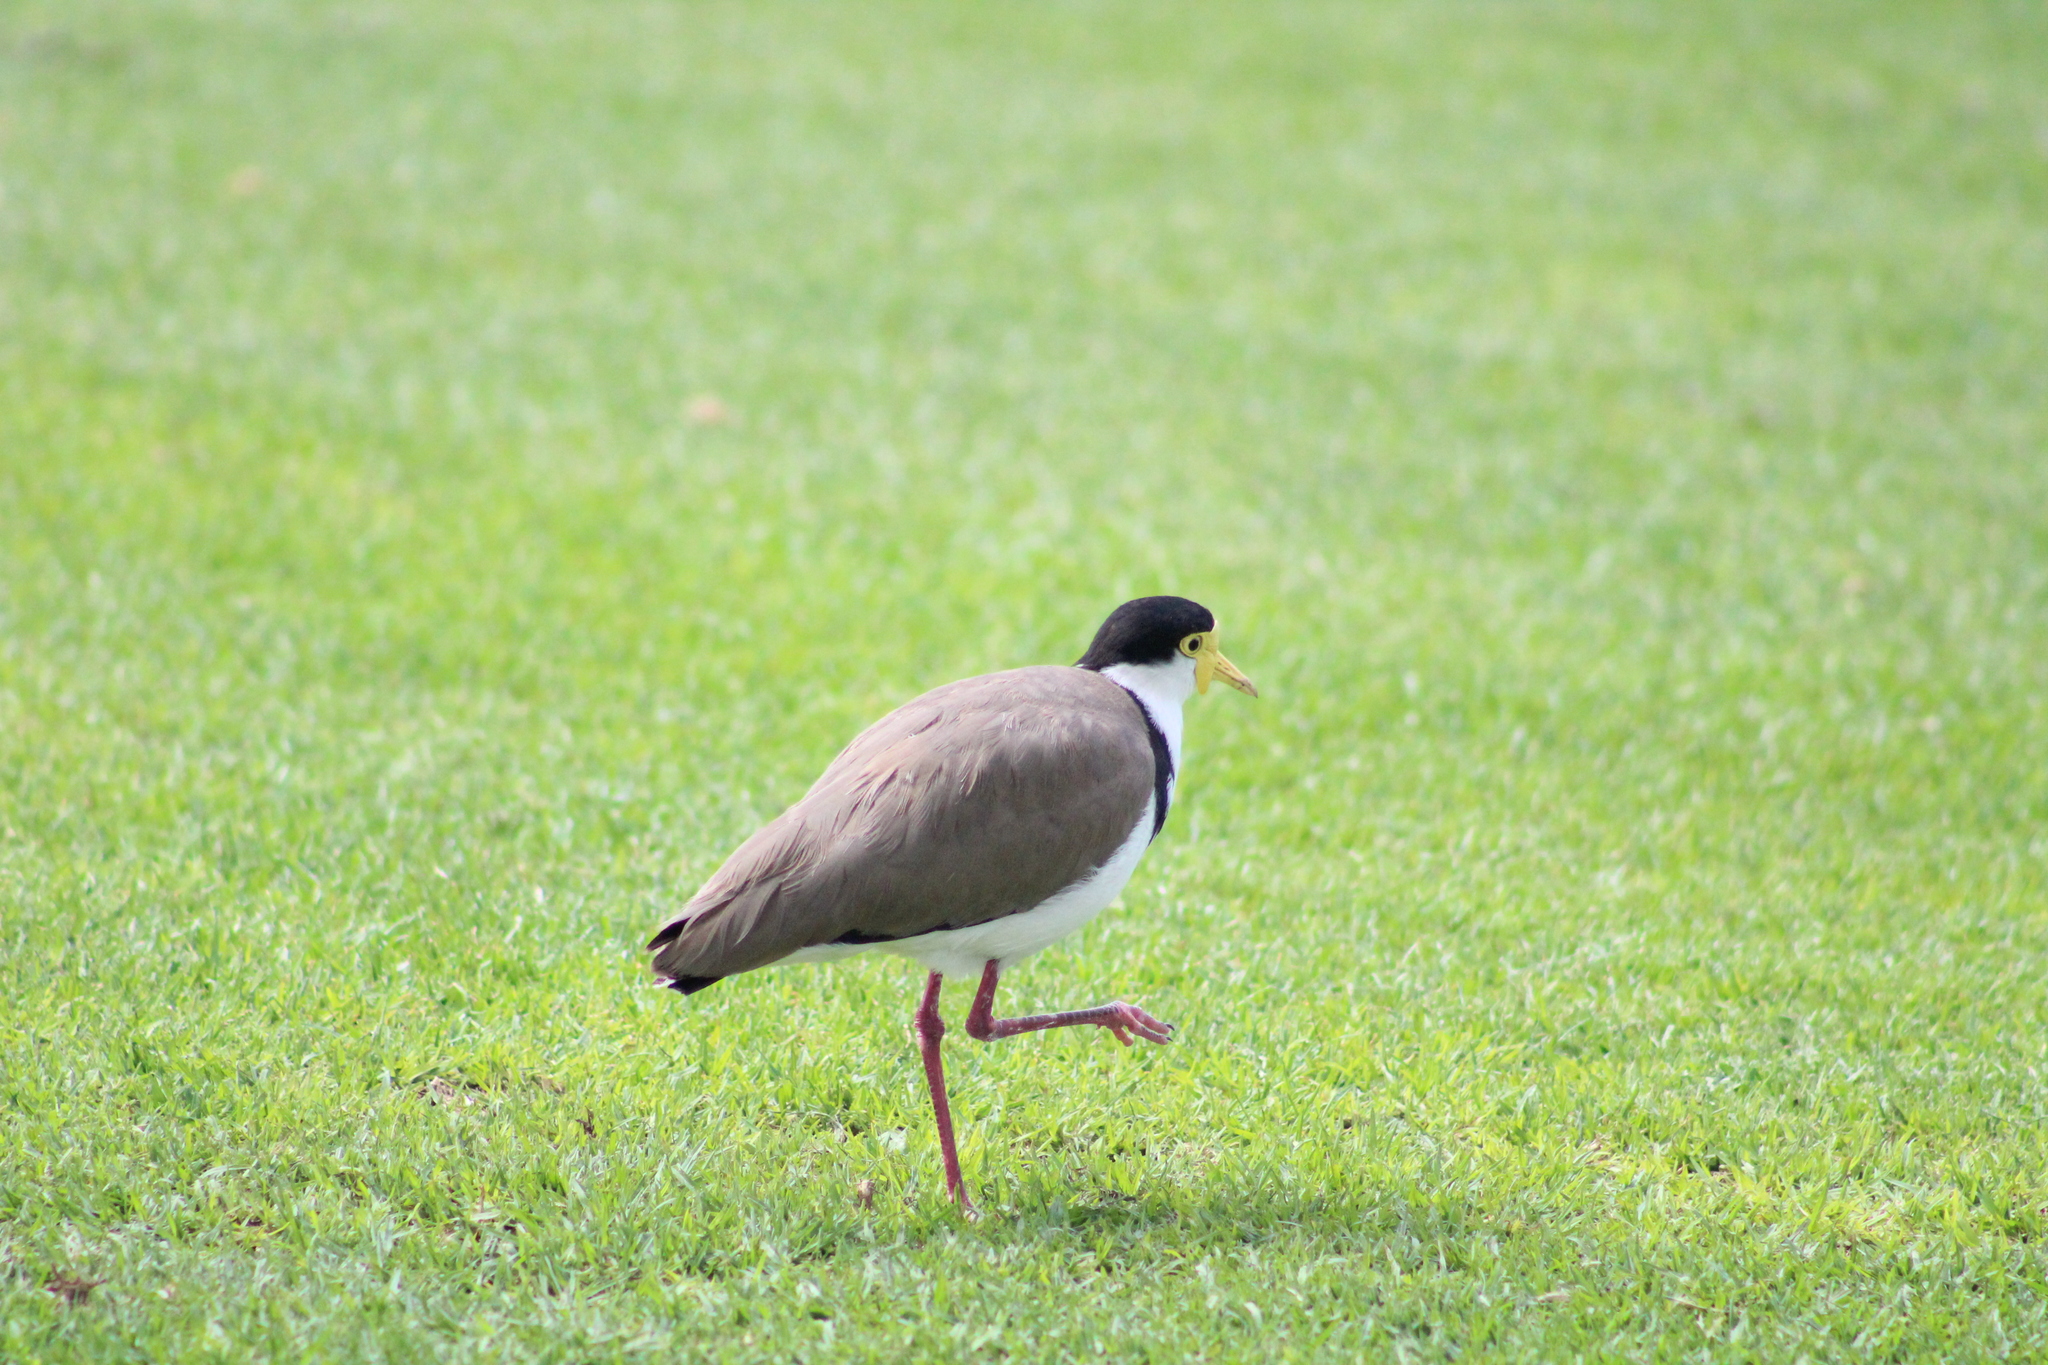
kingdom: Animalia
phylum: Chordata
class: Aves
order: Charadriiformes
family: Charadriidae
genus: Vanellus
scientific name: Vanellus miles
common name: Masked lapwing
